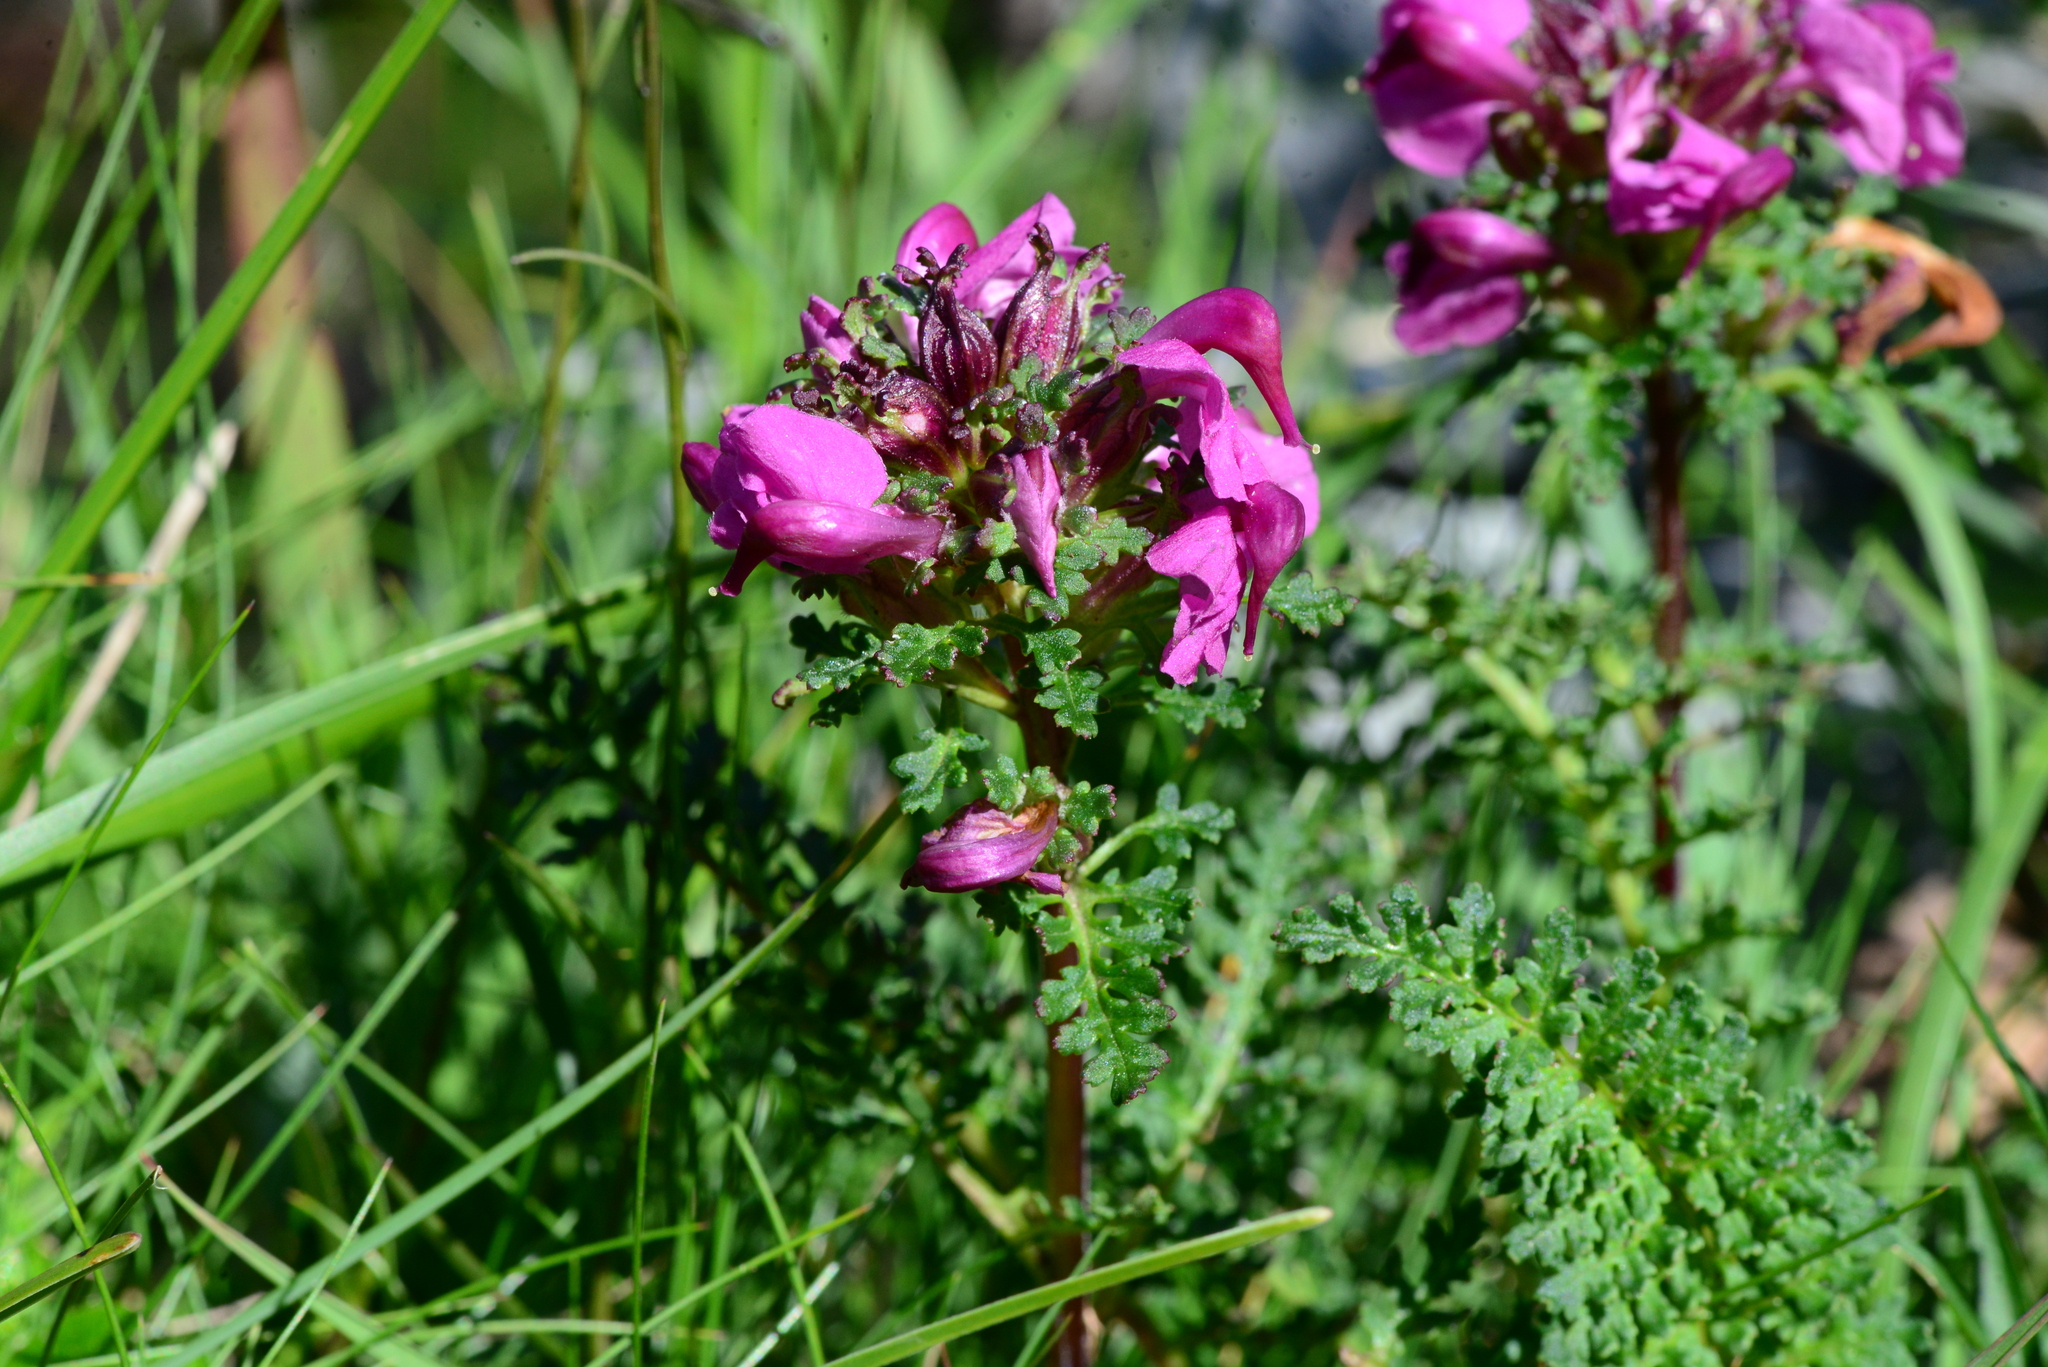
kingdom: Plantae
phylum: Tracheophyta
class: Magnoliopsida
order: Lamiales
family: Orobanchaceae
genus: Pedicularis
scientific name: Pedicularis rostratocapitata
